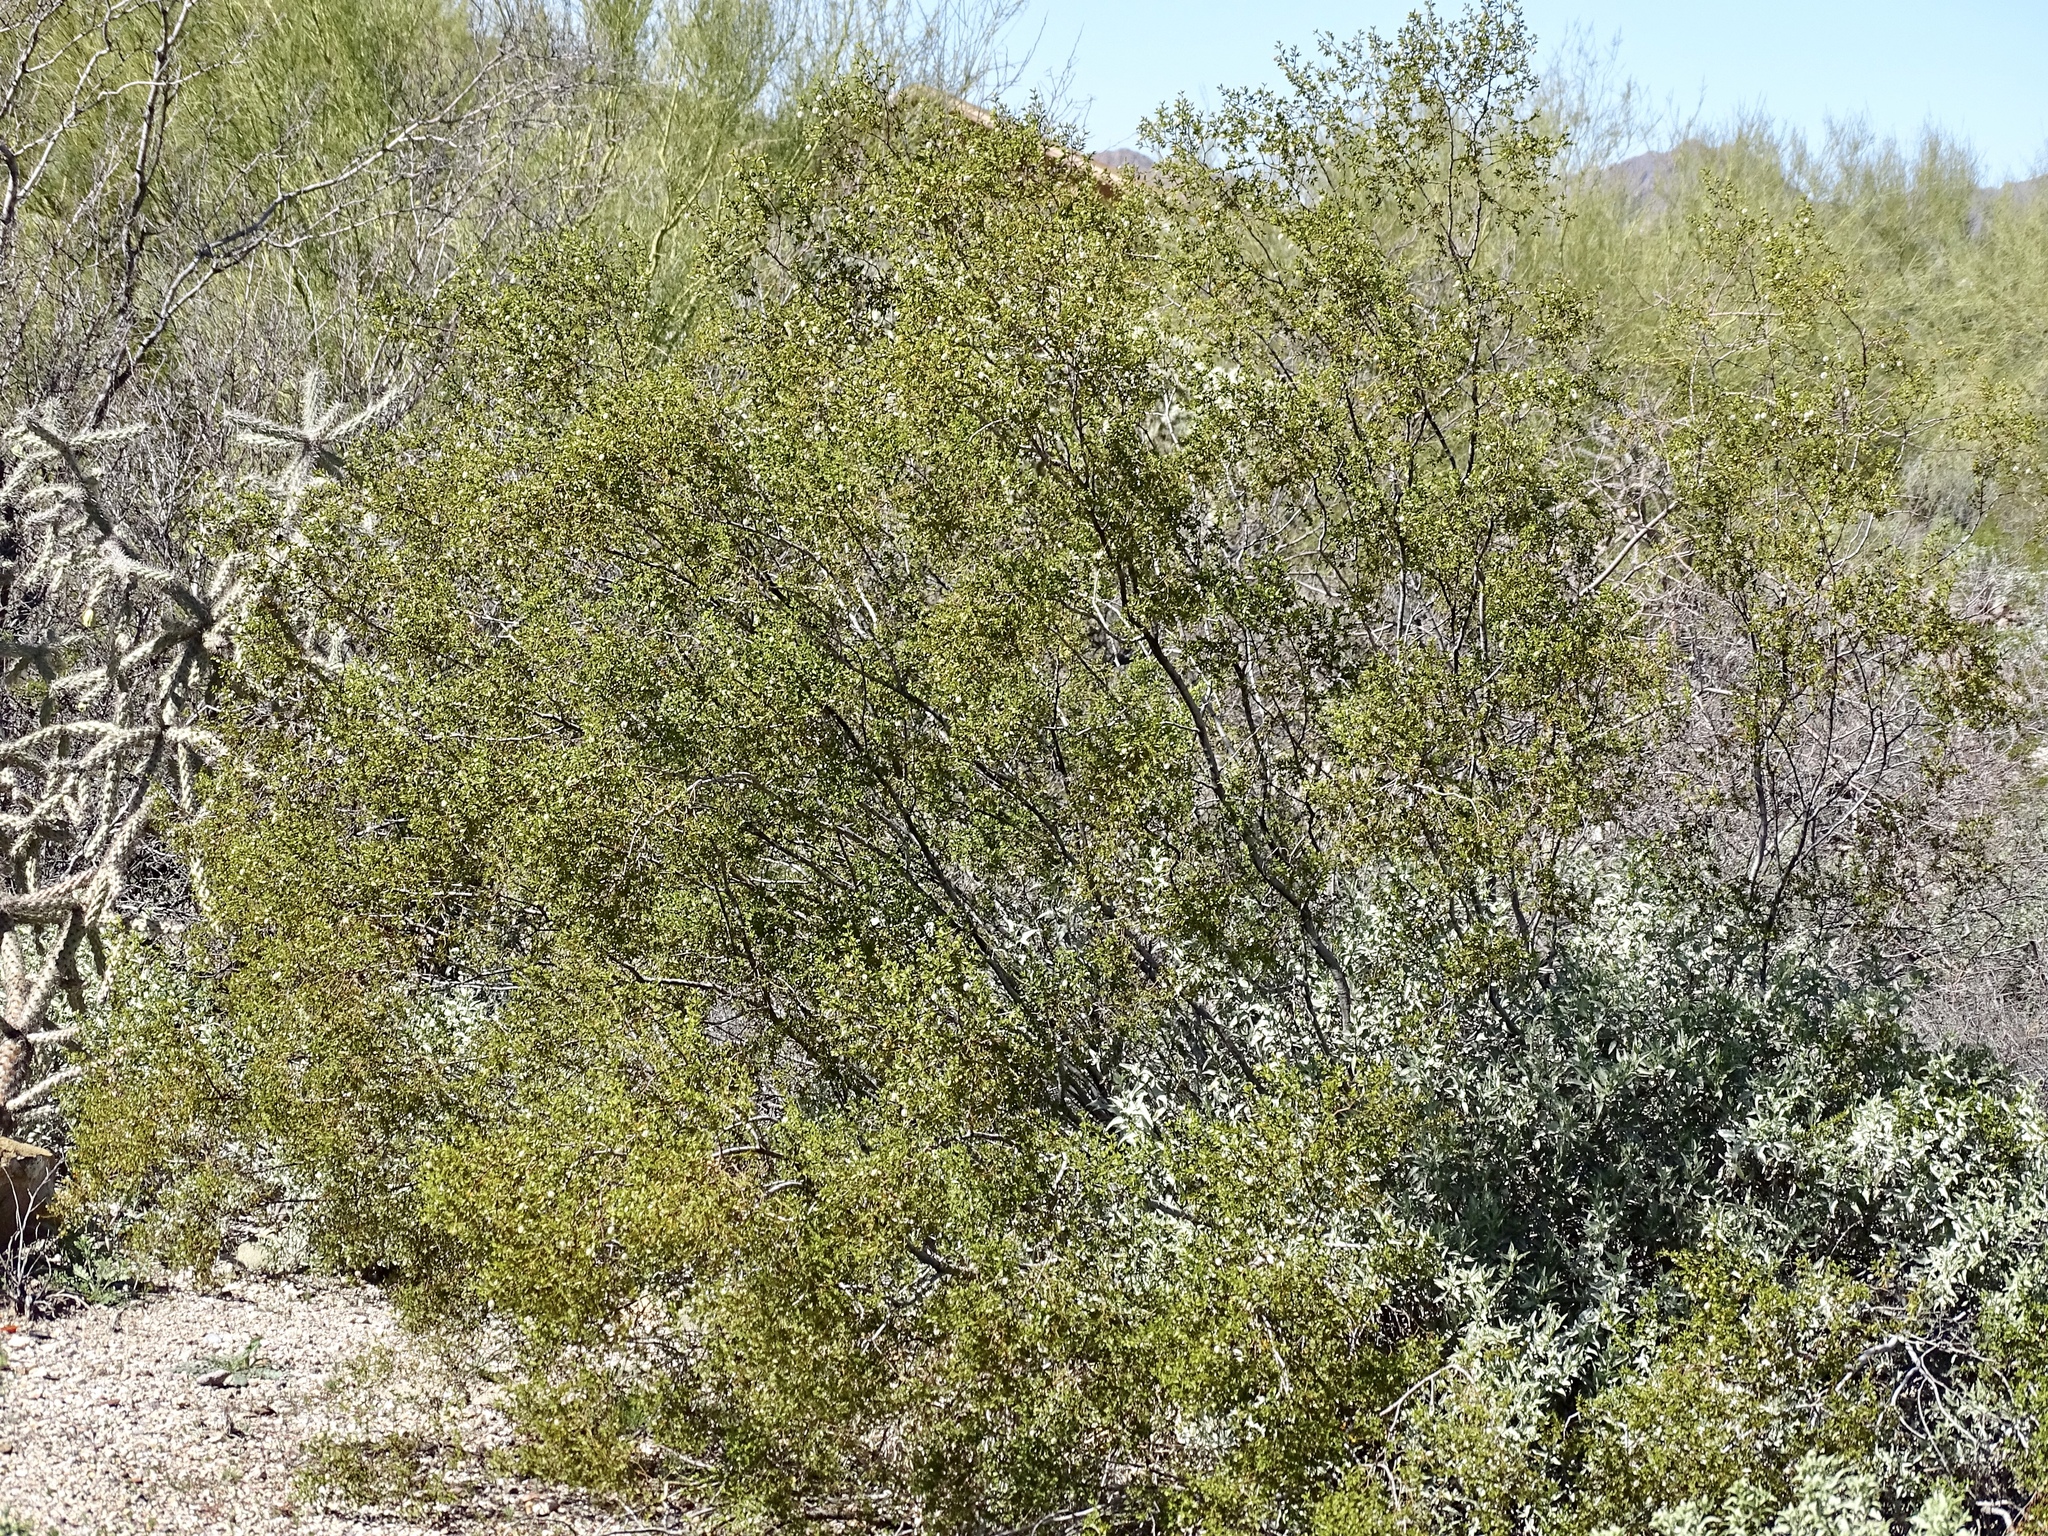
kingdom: Plantae
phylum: Tracheophyta
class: Magnoliopsida
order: Zygophyllales
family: Zygophyllaceae
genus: Larrea
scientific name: Larrea tridentata
